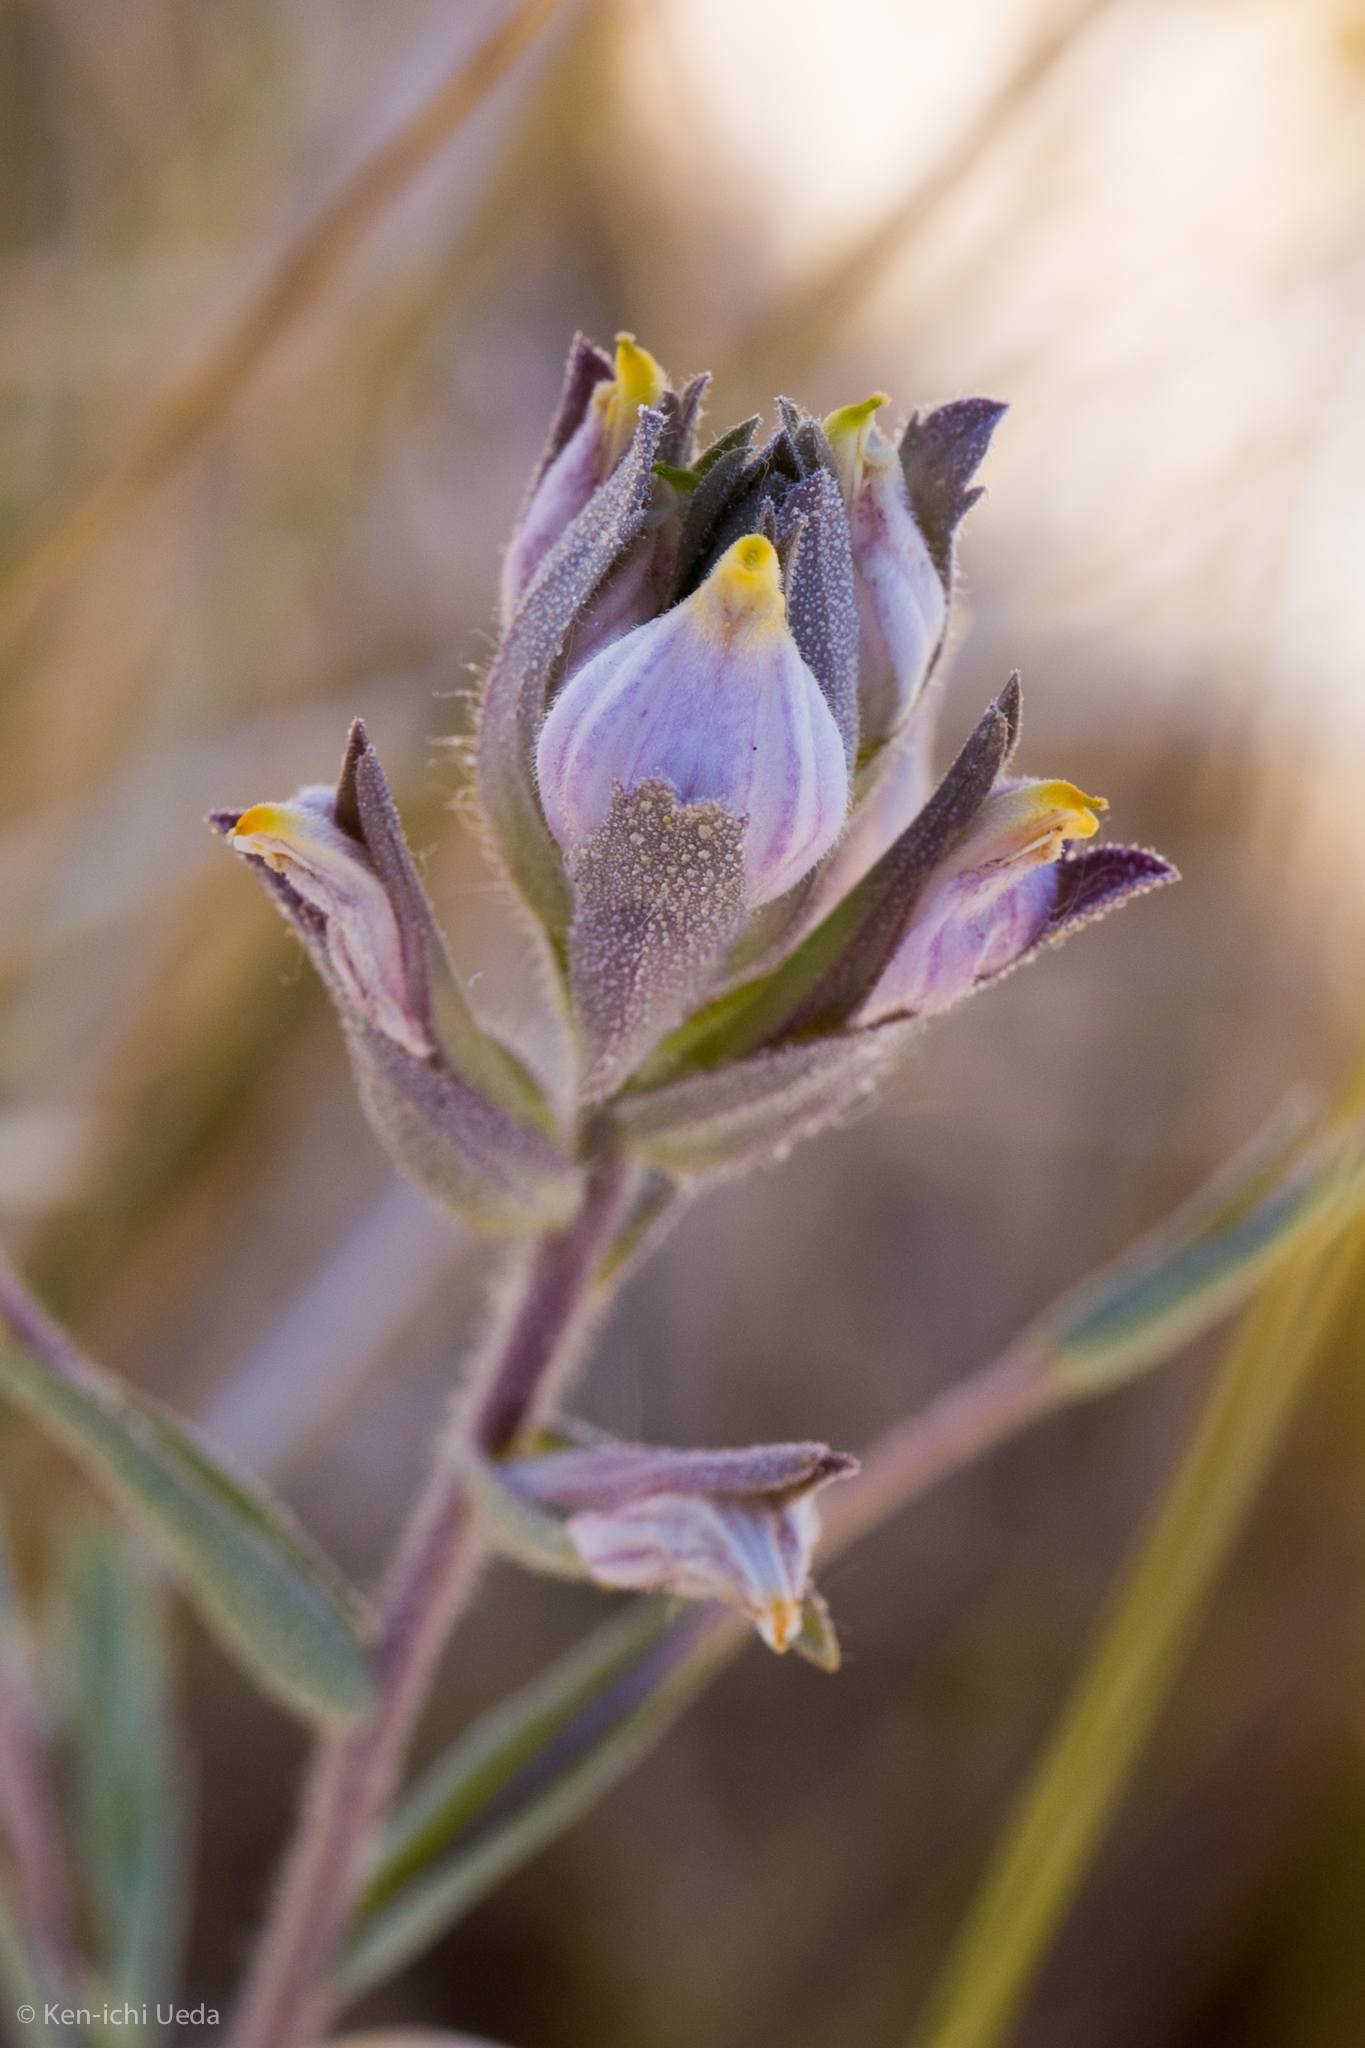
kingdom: Plantae
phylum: Tracheophyta
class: Magnoliopsida
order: Lamiales
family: Orobanchaceae
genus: Chloropyron
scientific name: Chloropyron maritimum
